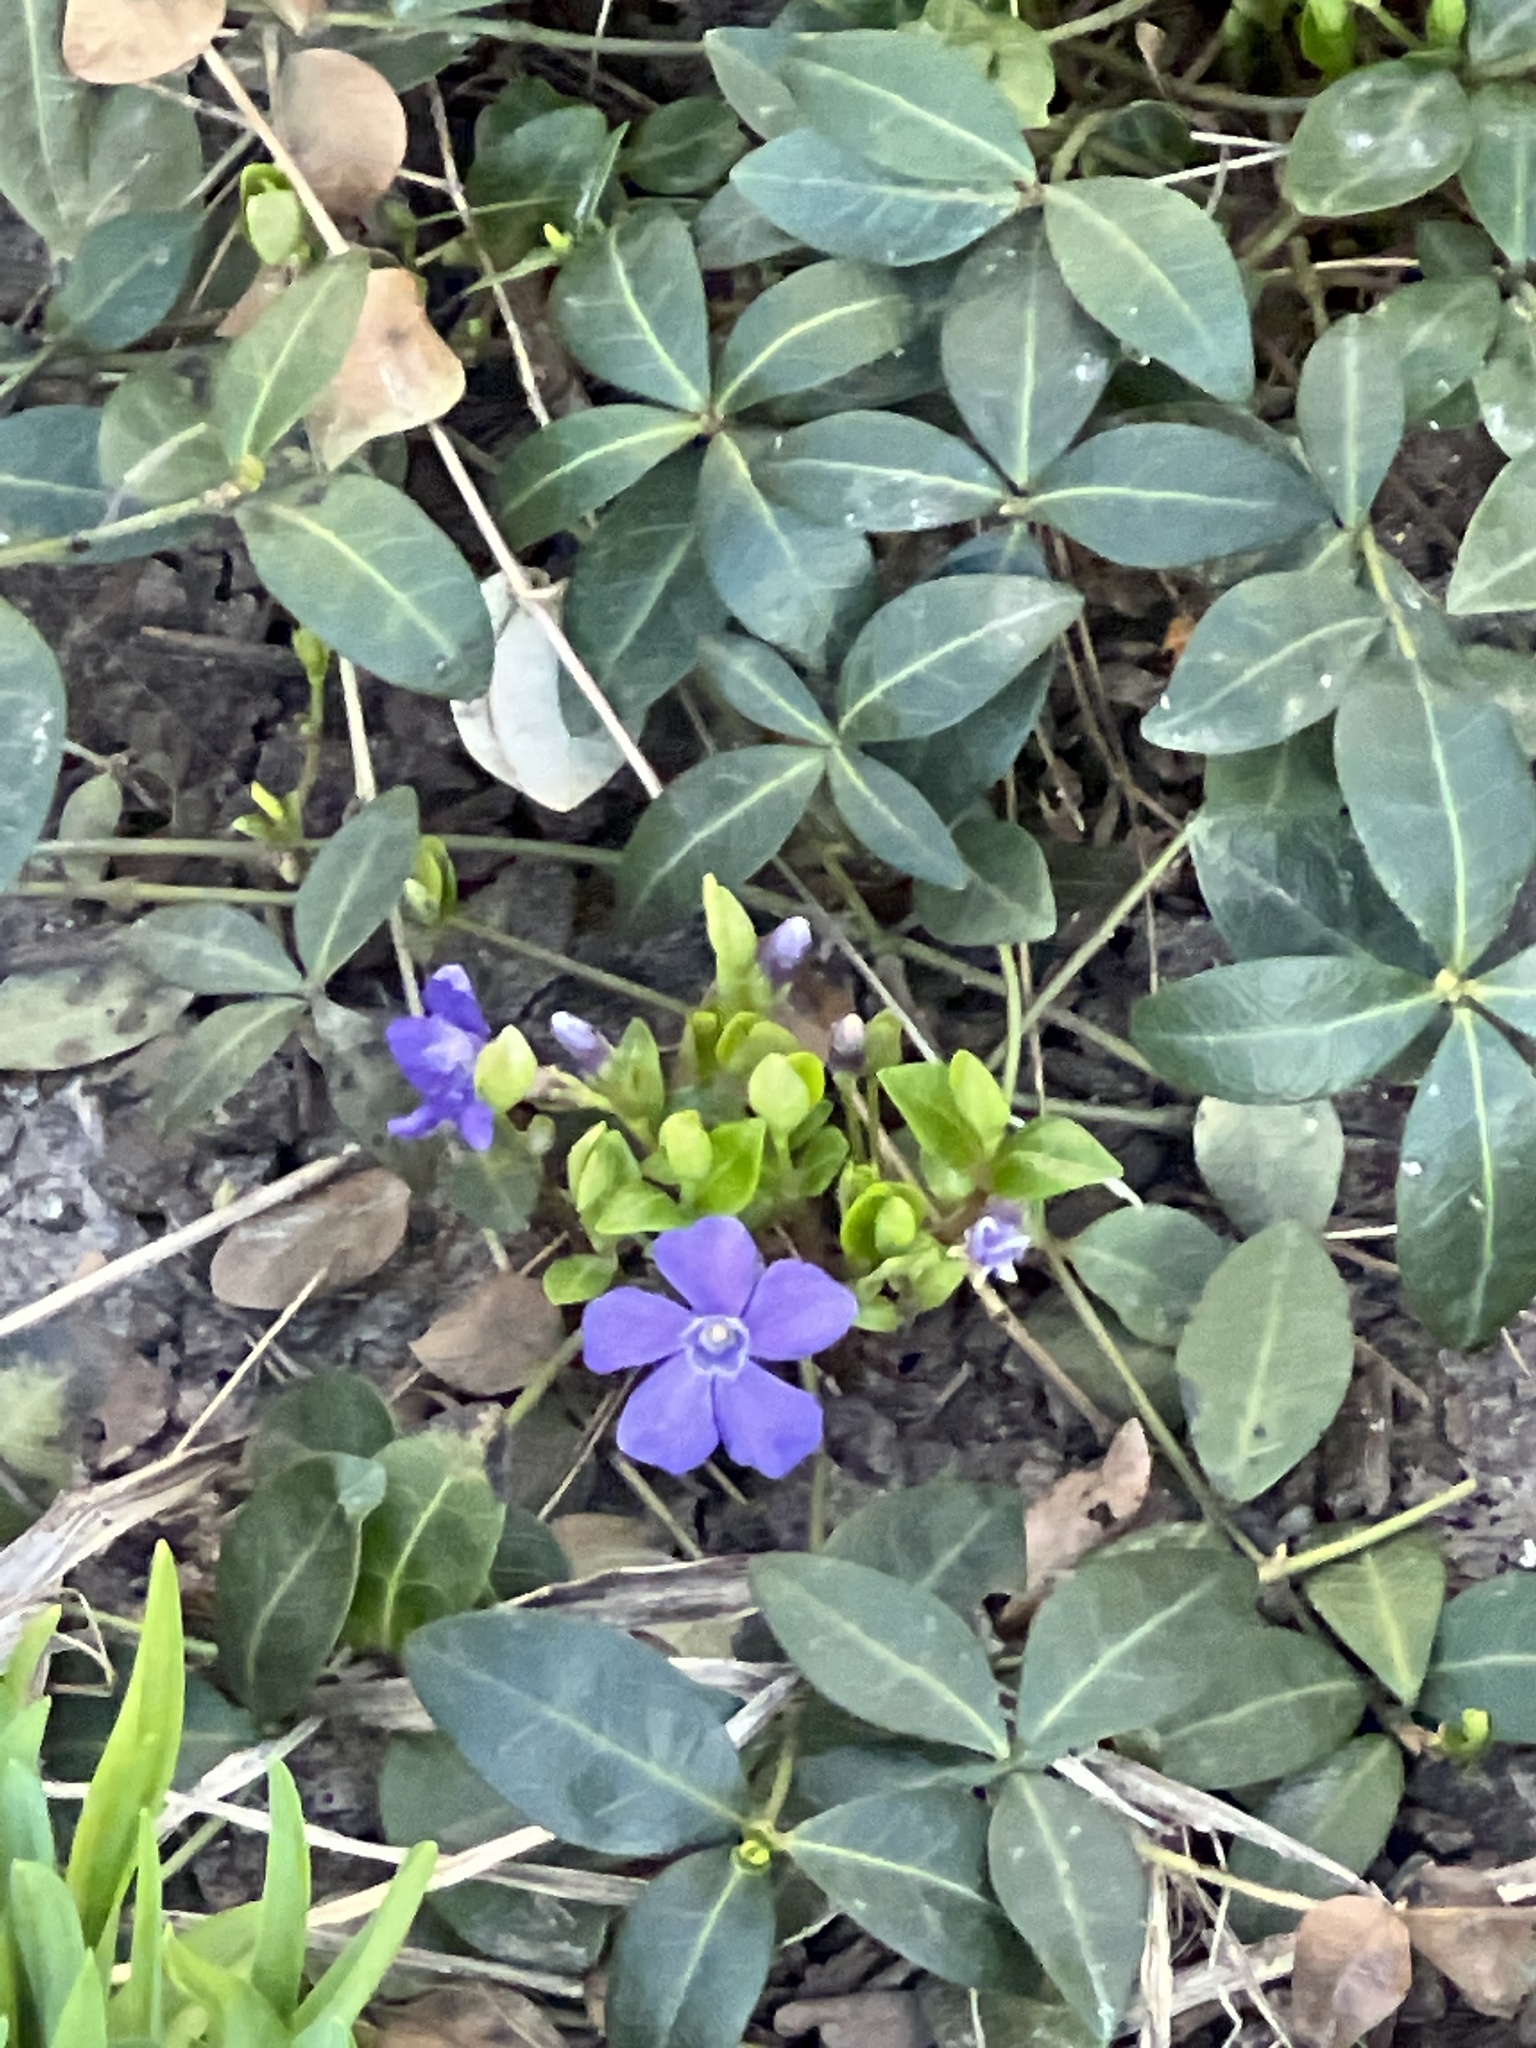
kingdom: Plantae
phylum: Tracheophyta
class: Magnoliopsida
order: Gentianales
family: Apocynaceae
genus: Vinca
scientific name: Vinca minor
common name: Lesser periwinkle
